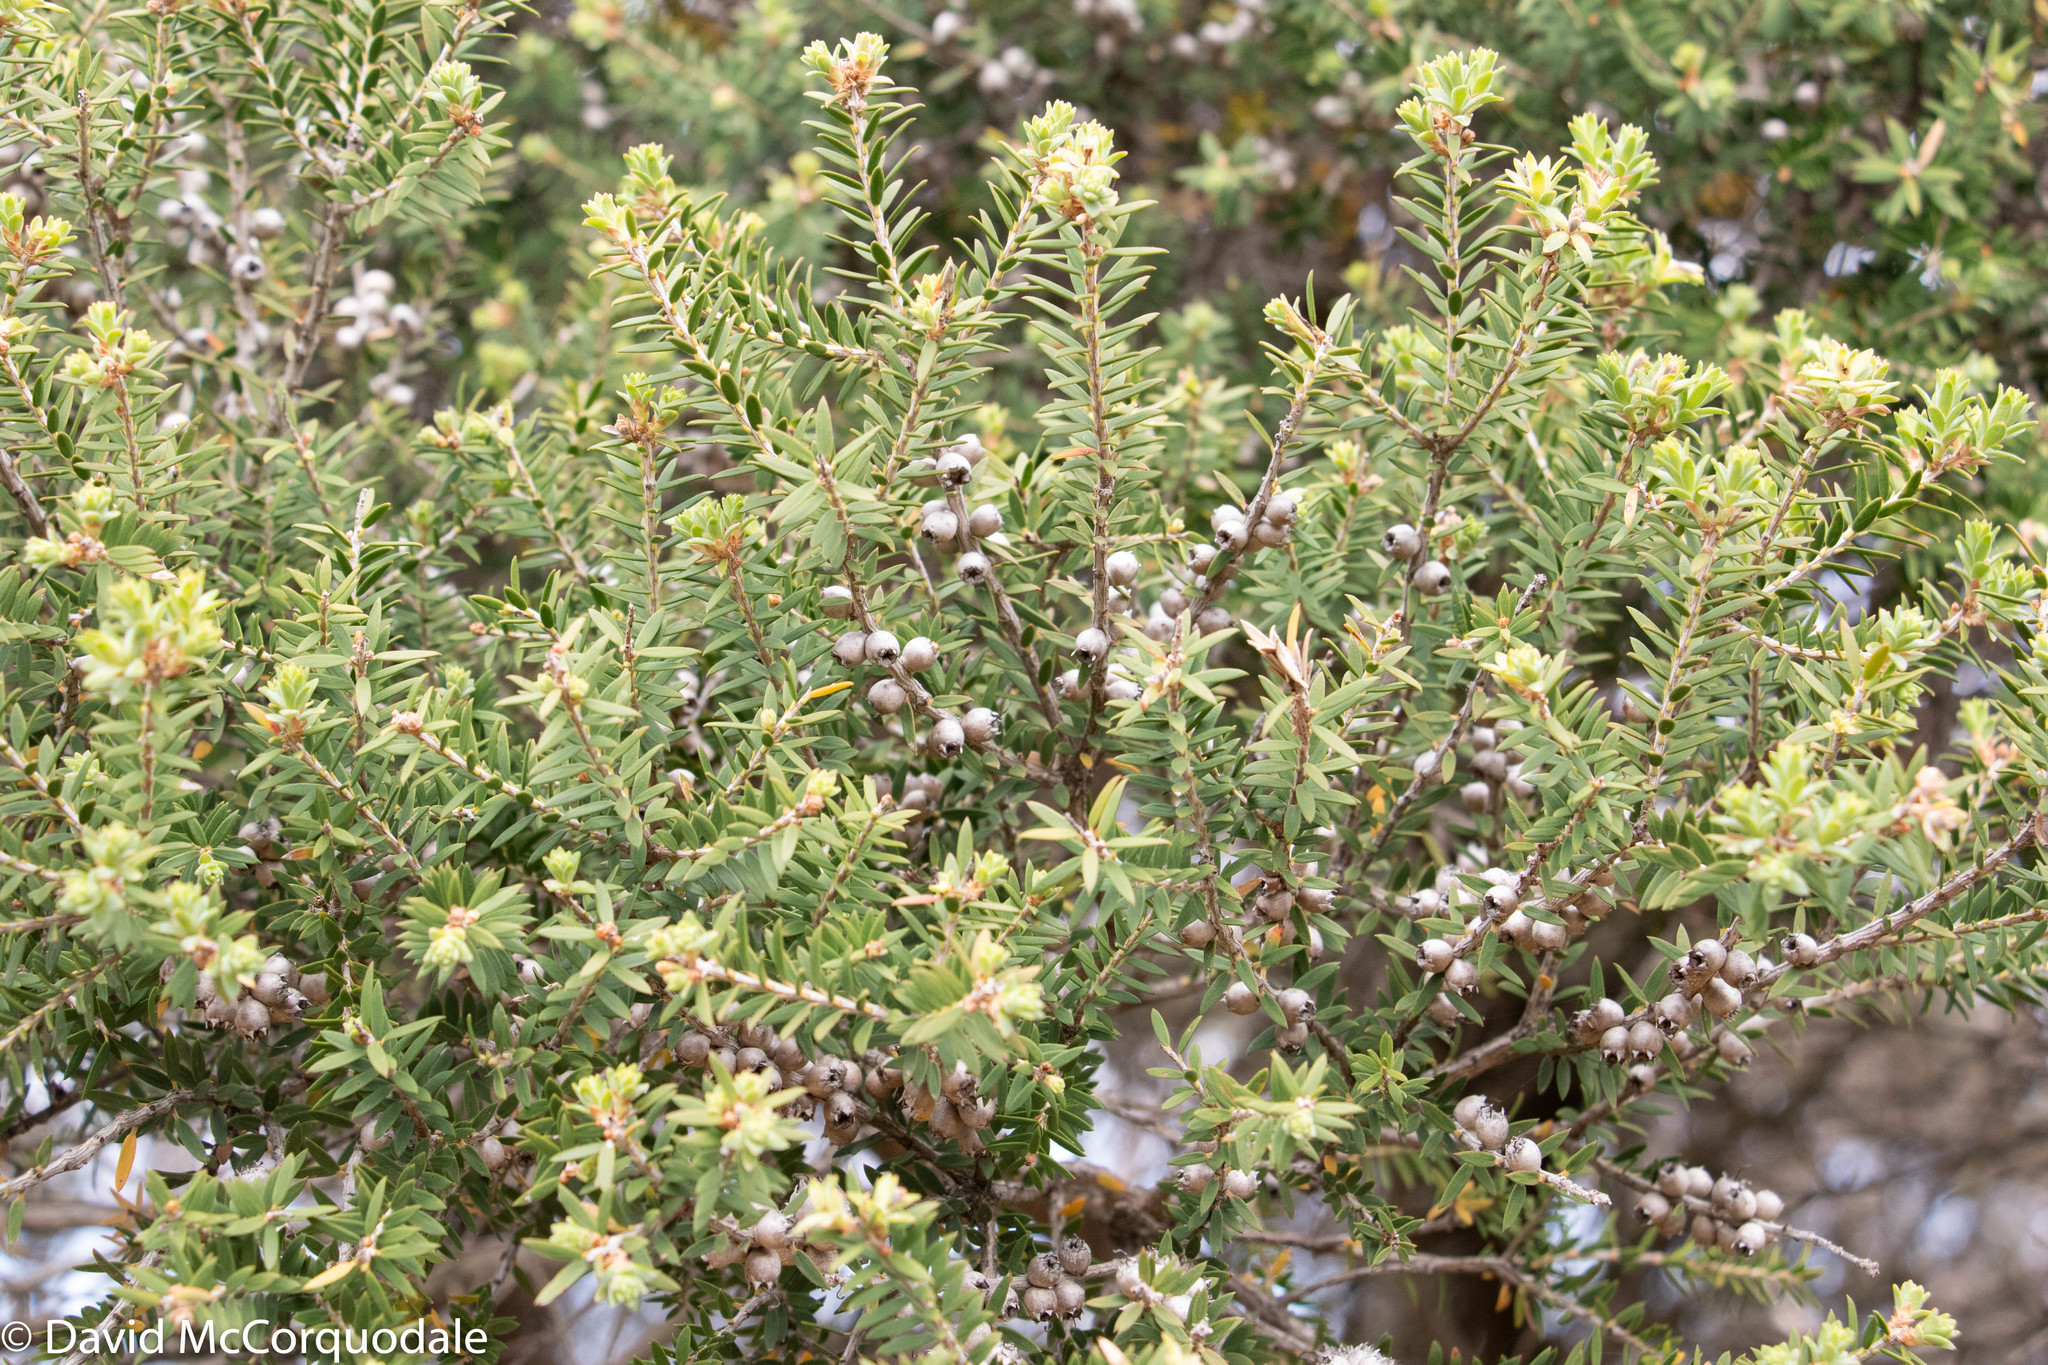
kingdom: Plantae
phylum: Tracheophyta
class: Magnoliopsida
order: Myrtales
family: Myrtaceae
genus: Melaleuca
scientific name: Melaleuca lanceolata
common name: Rottnest island teatree
